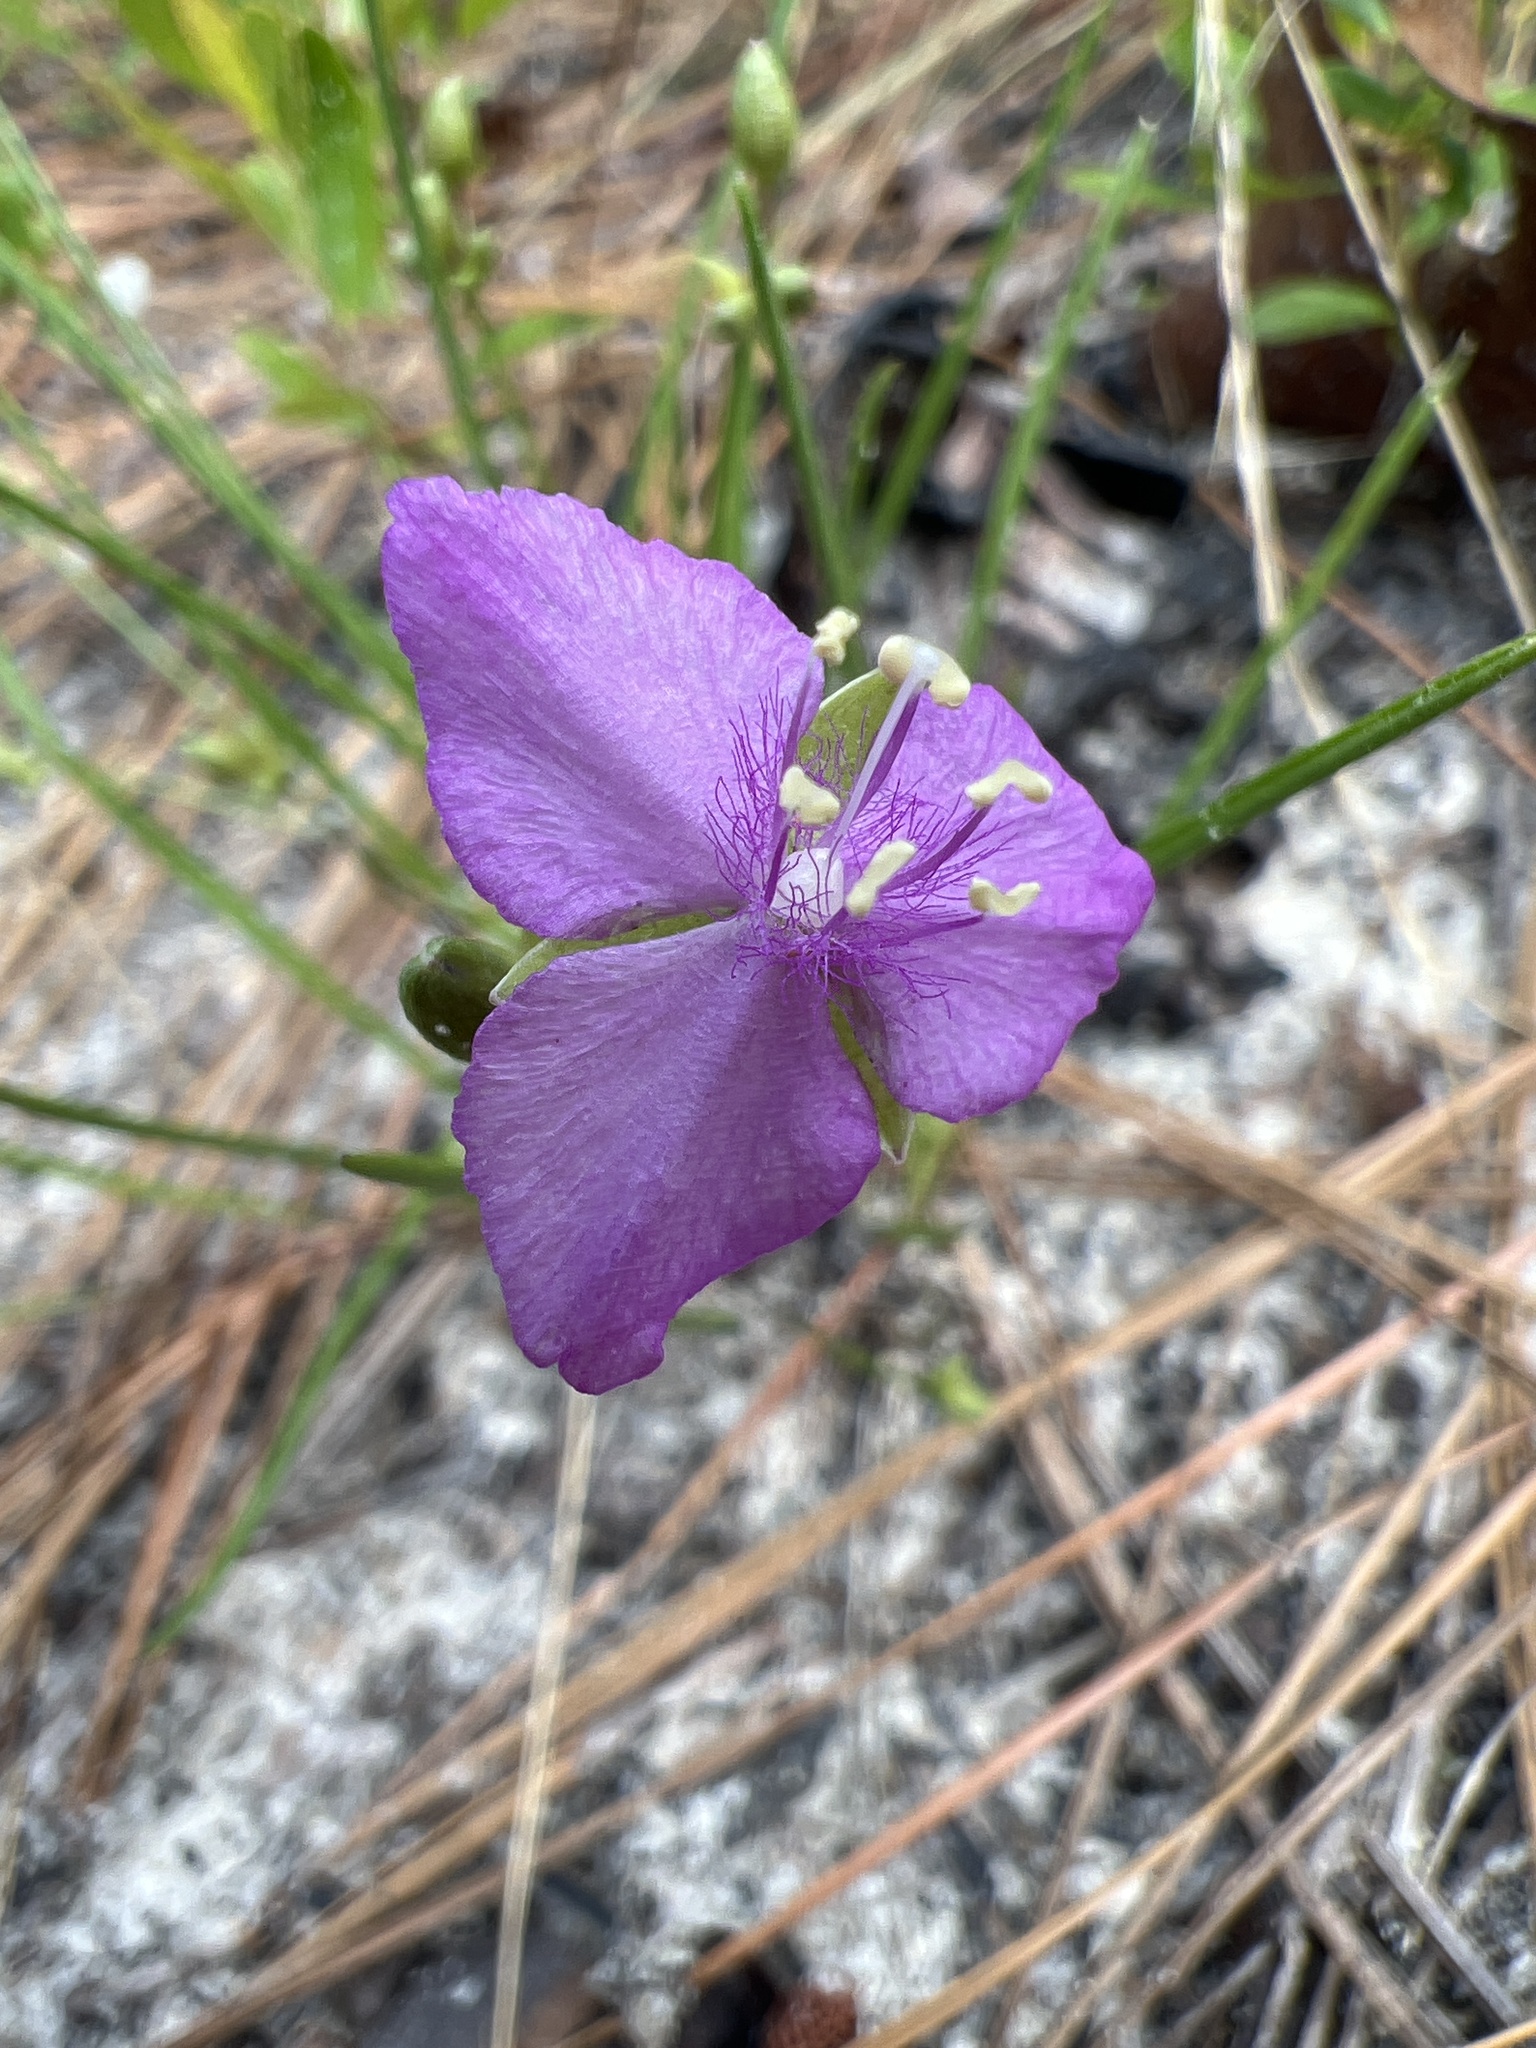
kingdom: Plantae
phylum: Tracheophyta
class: Liliopsida
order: Commelinales
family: Commelinaceae
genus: Callisia
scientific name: Callisia graminea
